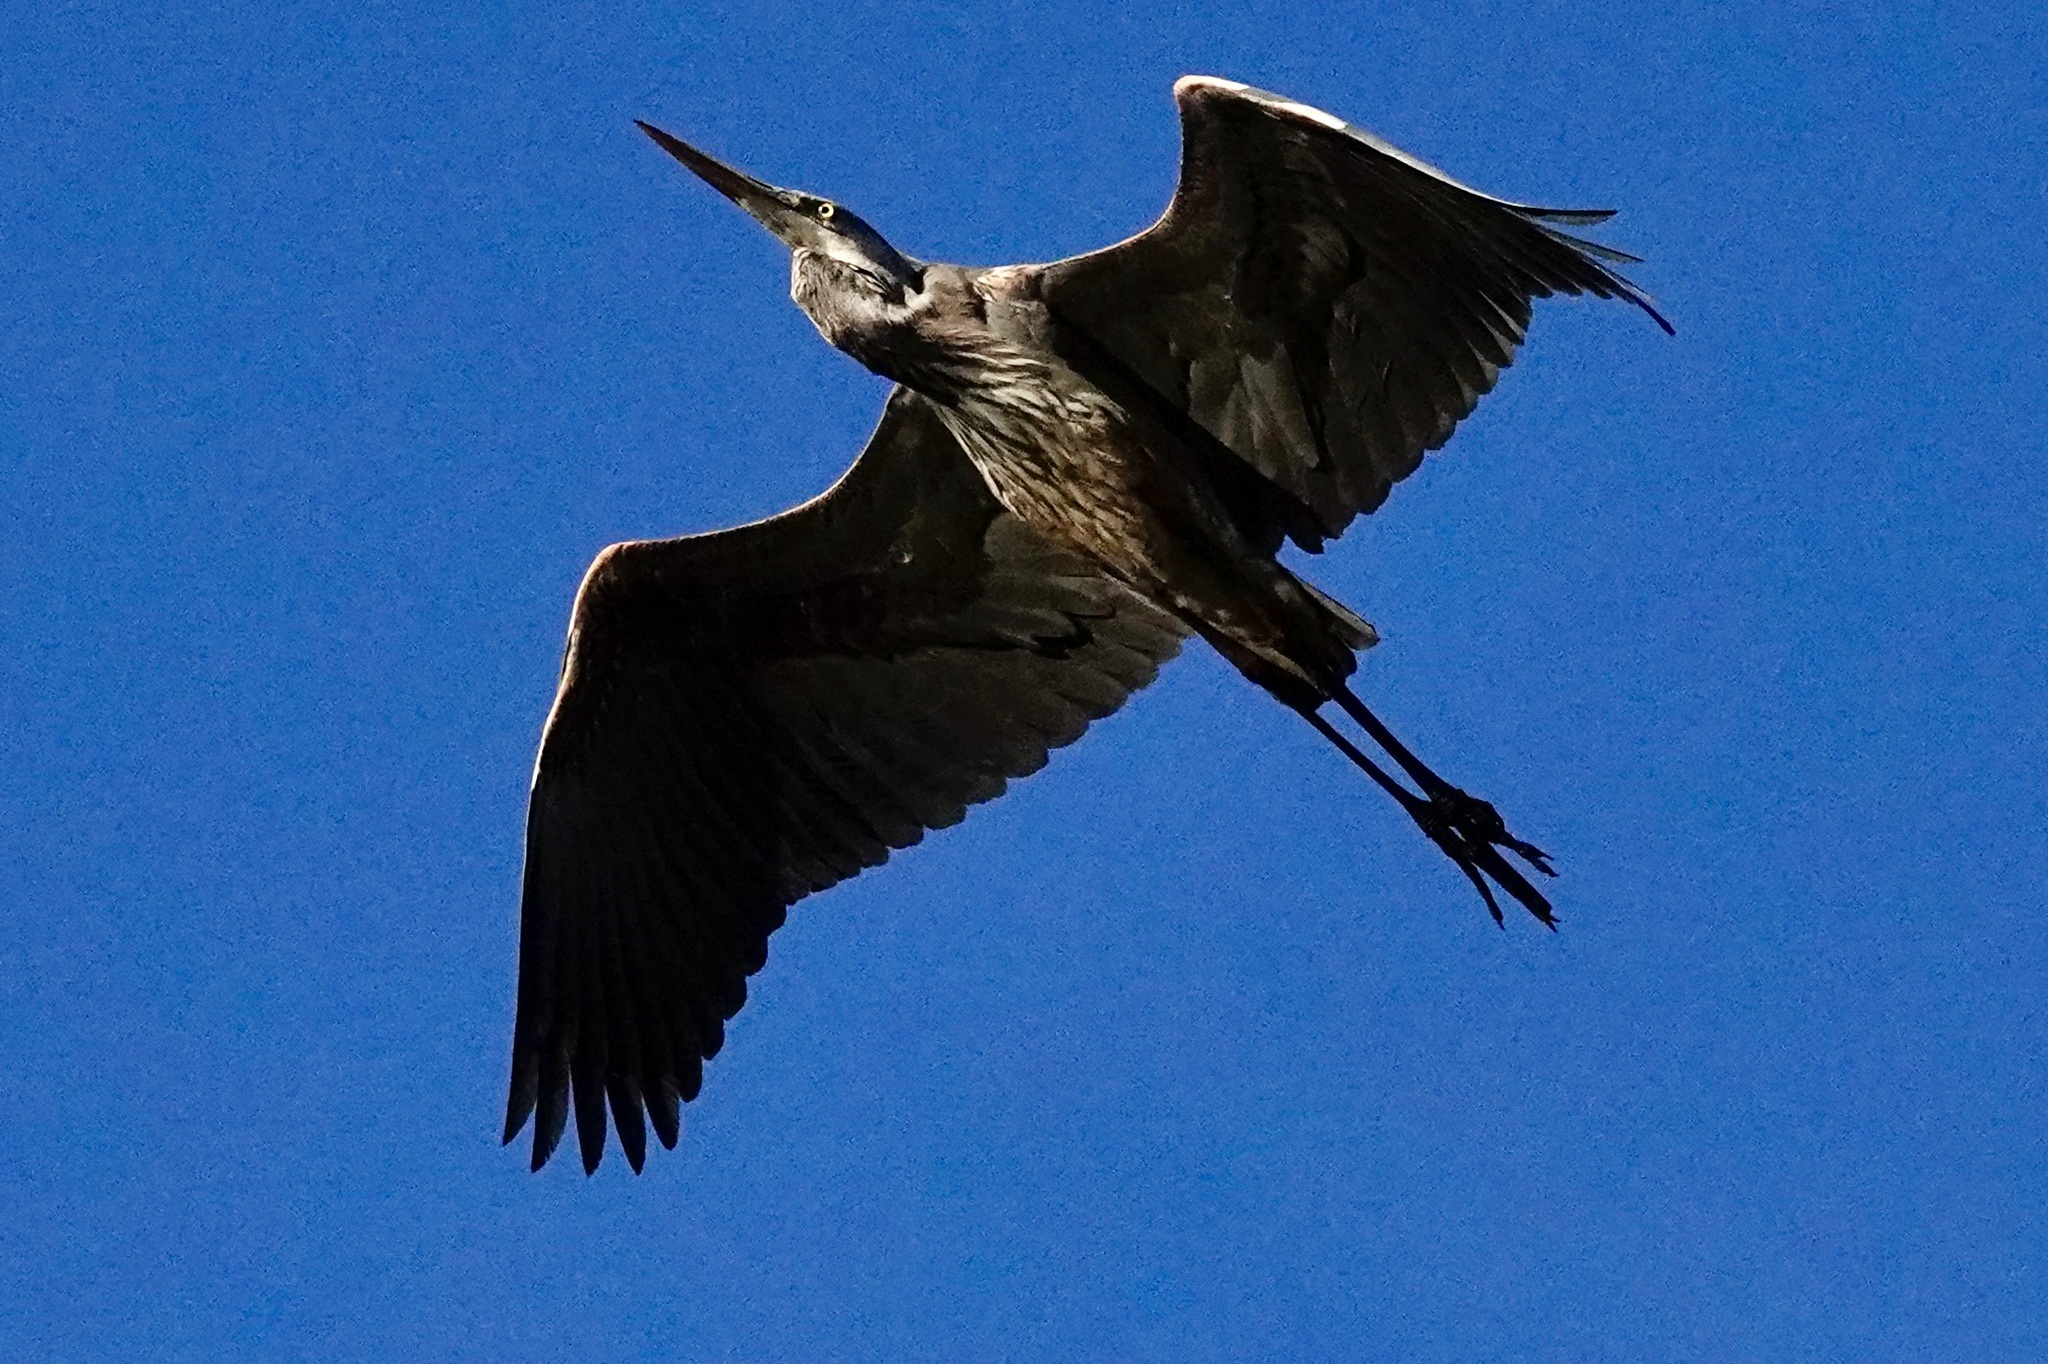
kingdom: Animalia
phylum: Chordata
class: Aves
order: Pelecaniformes
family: Ardeidae
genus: Ardea
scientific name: Ardea herodias
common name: Great blue heron
